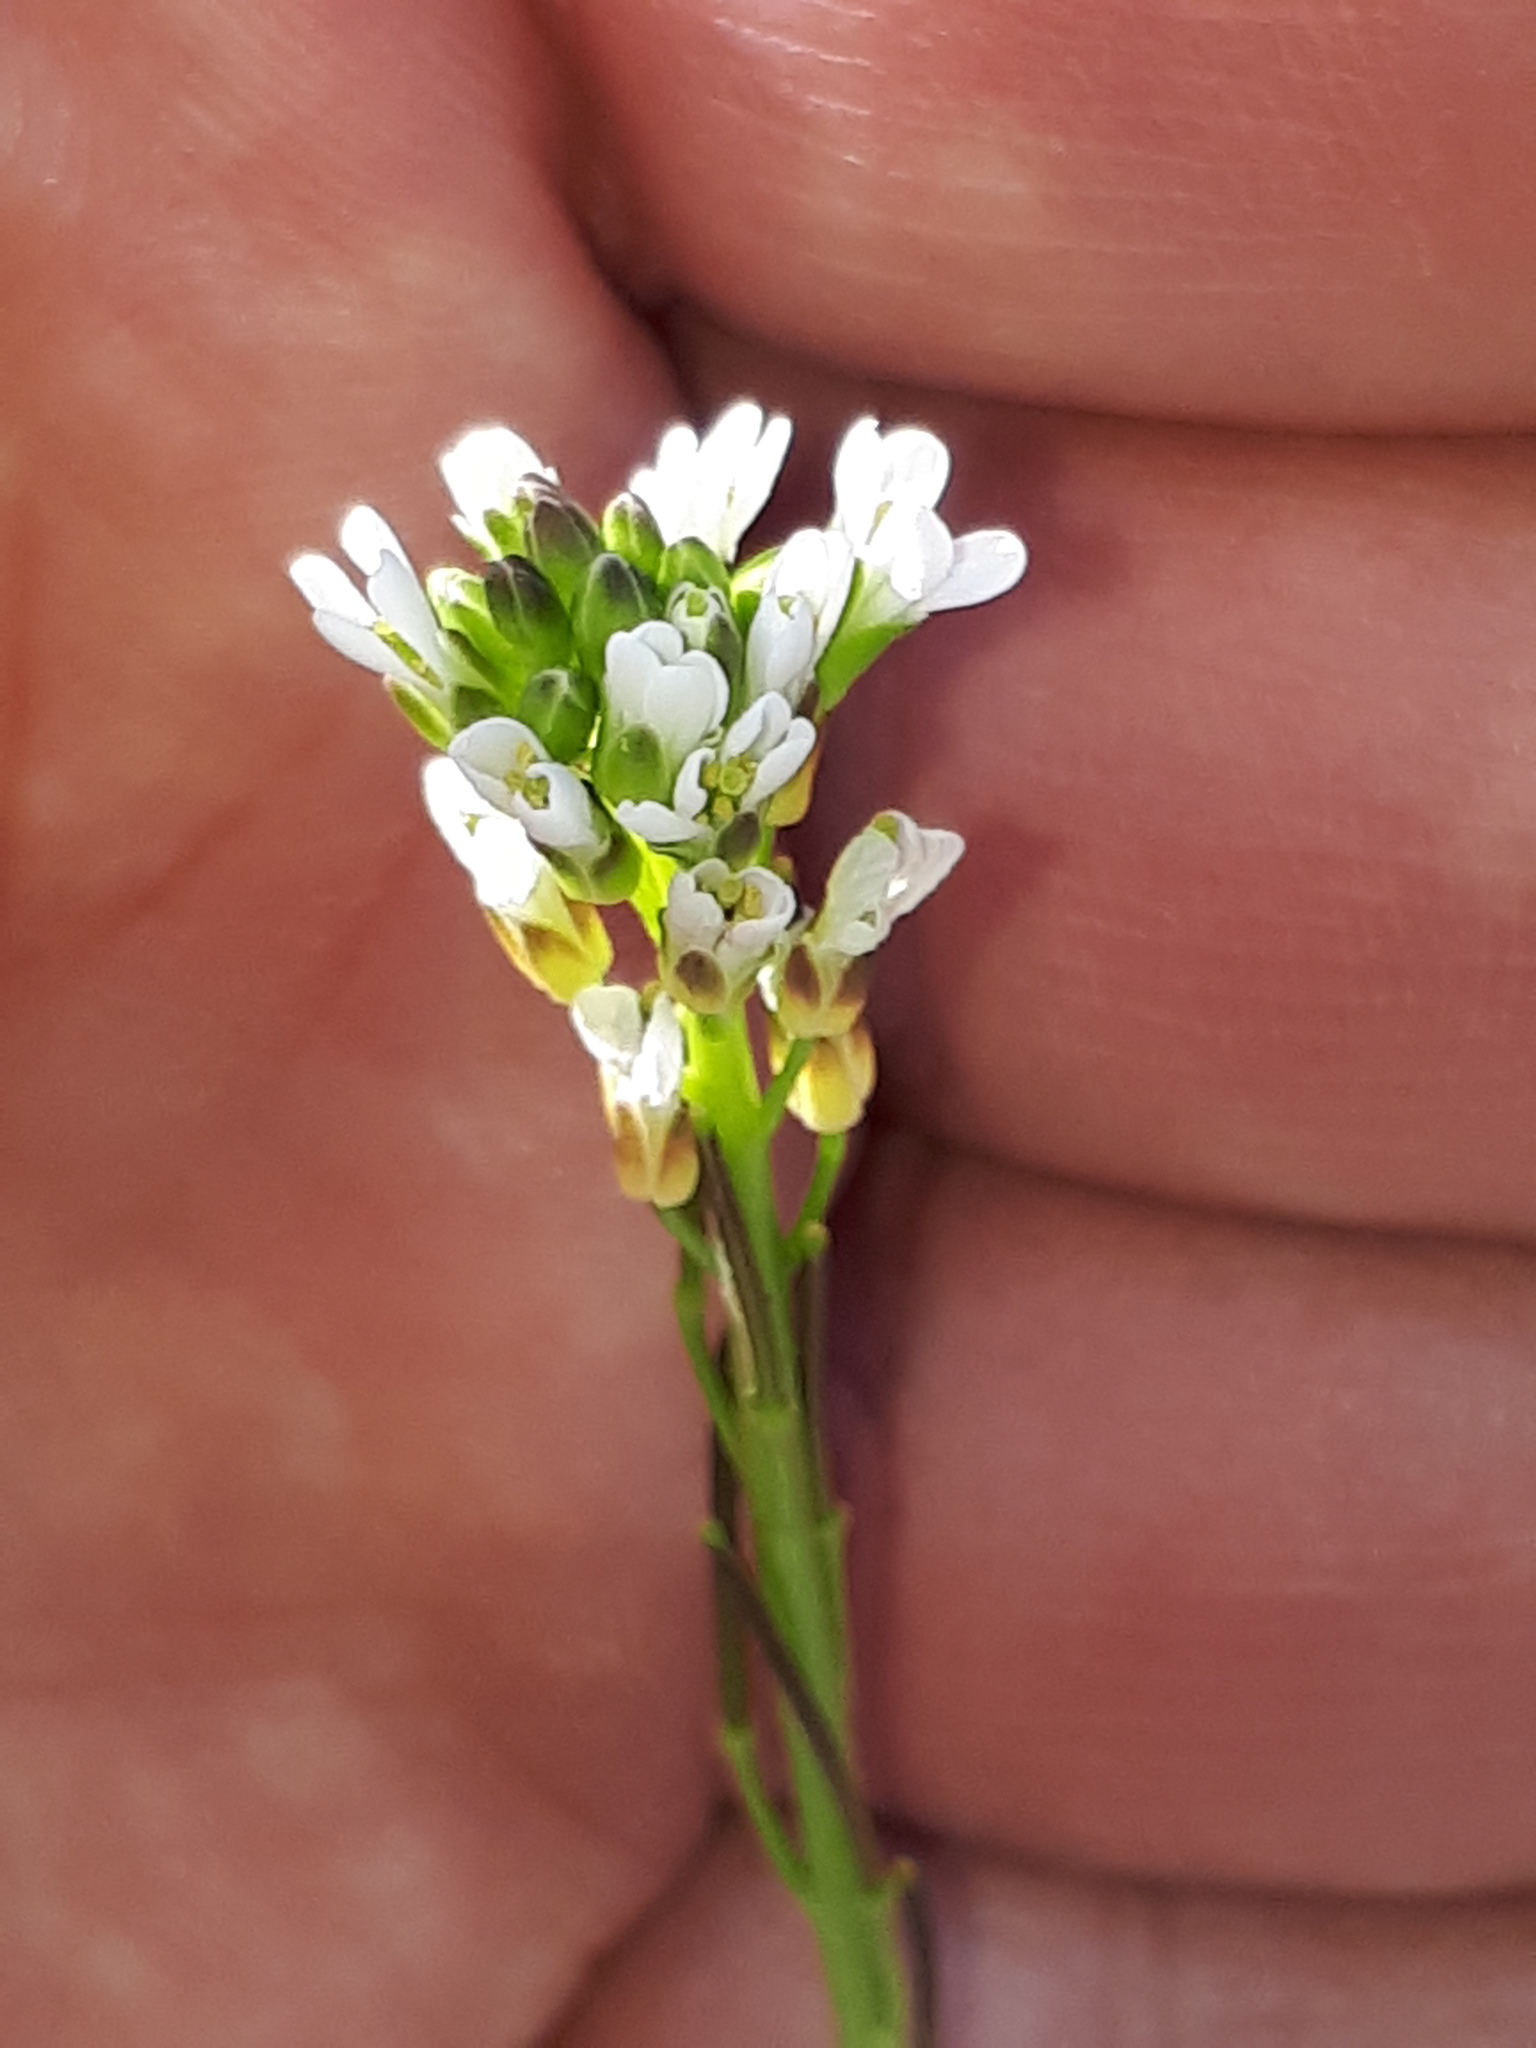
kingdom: Plantae
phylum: Tracheophyta
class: Magnoliopsida
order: Brassicales
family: Brassicaceae
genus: Turritis
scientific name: Turritis glabra
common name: Tower rockcress
